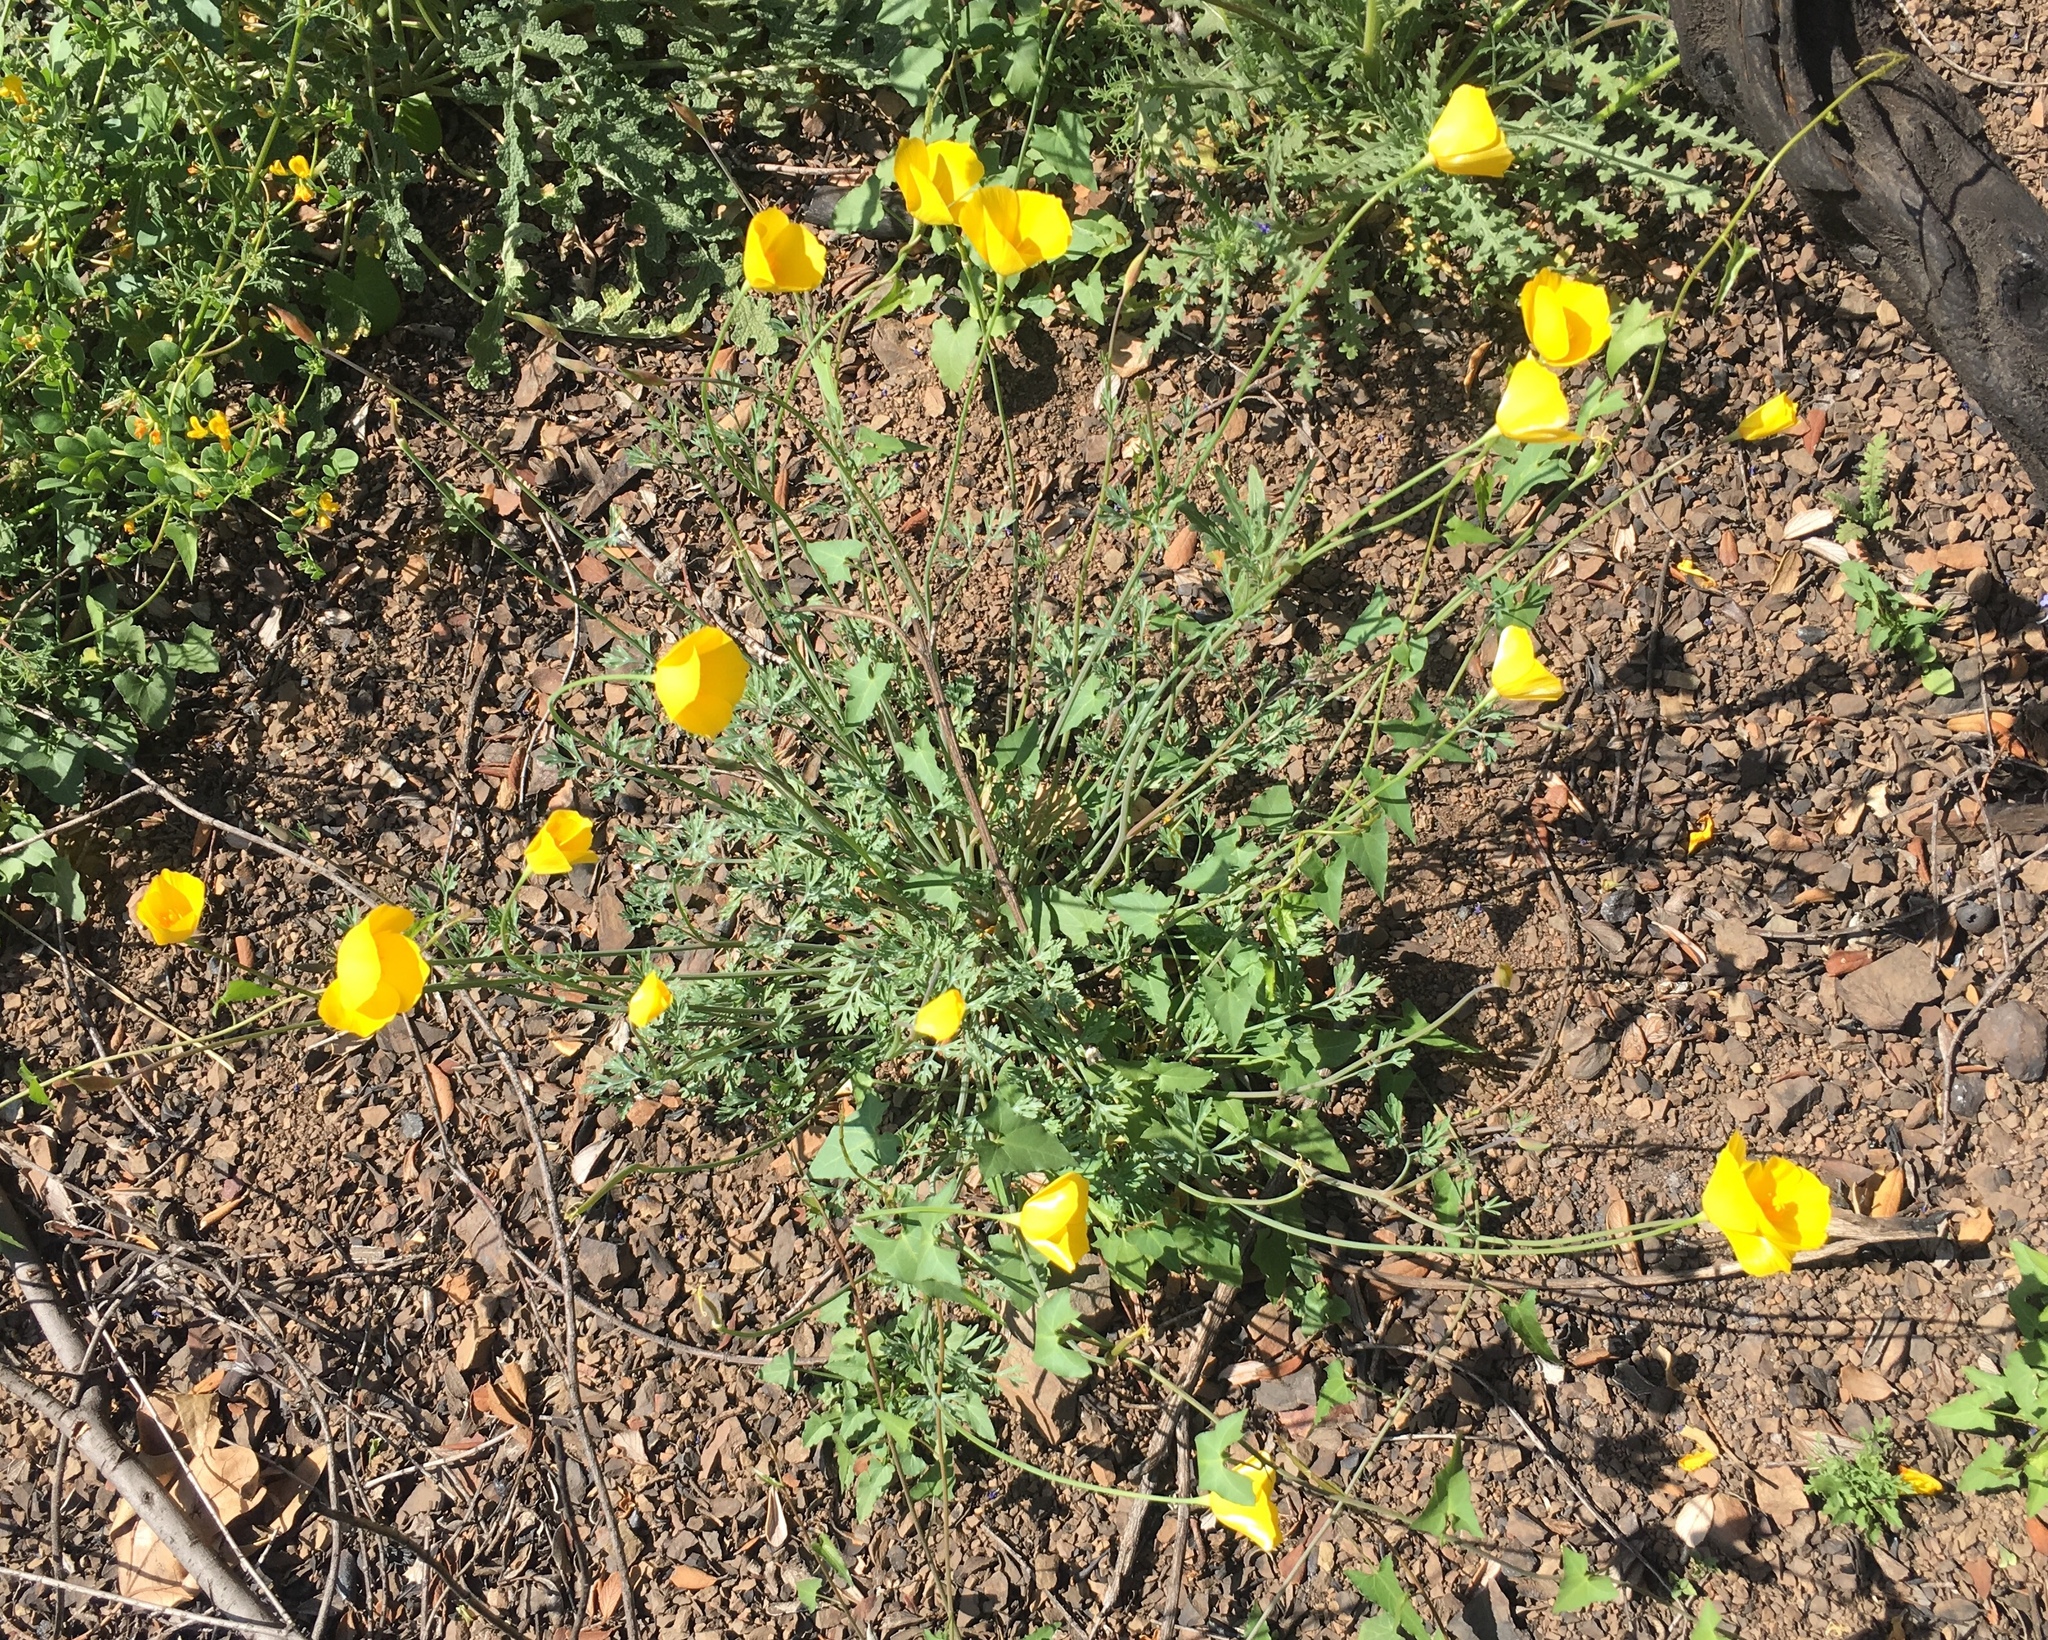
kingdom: Plantae
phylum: Tracheophyta
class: Magnoliopsida
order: Ranunculales
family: Papaveraceae
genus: Eschscholzia
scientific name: Eschscholzia caespitosa
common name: Tufted california-poppy
